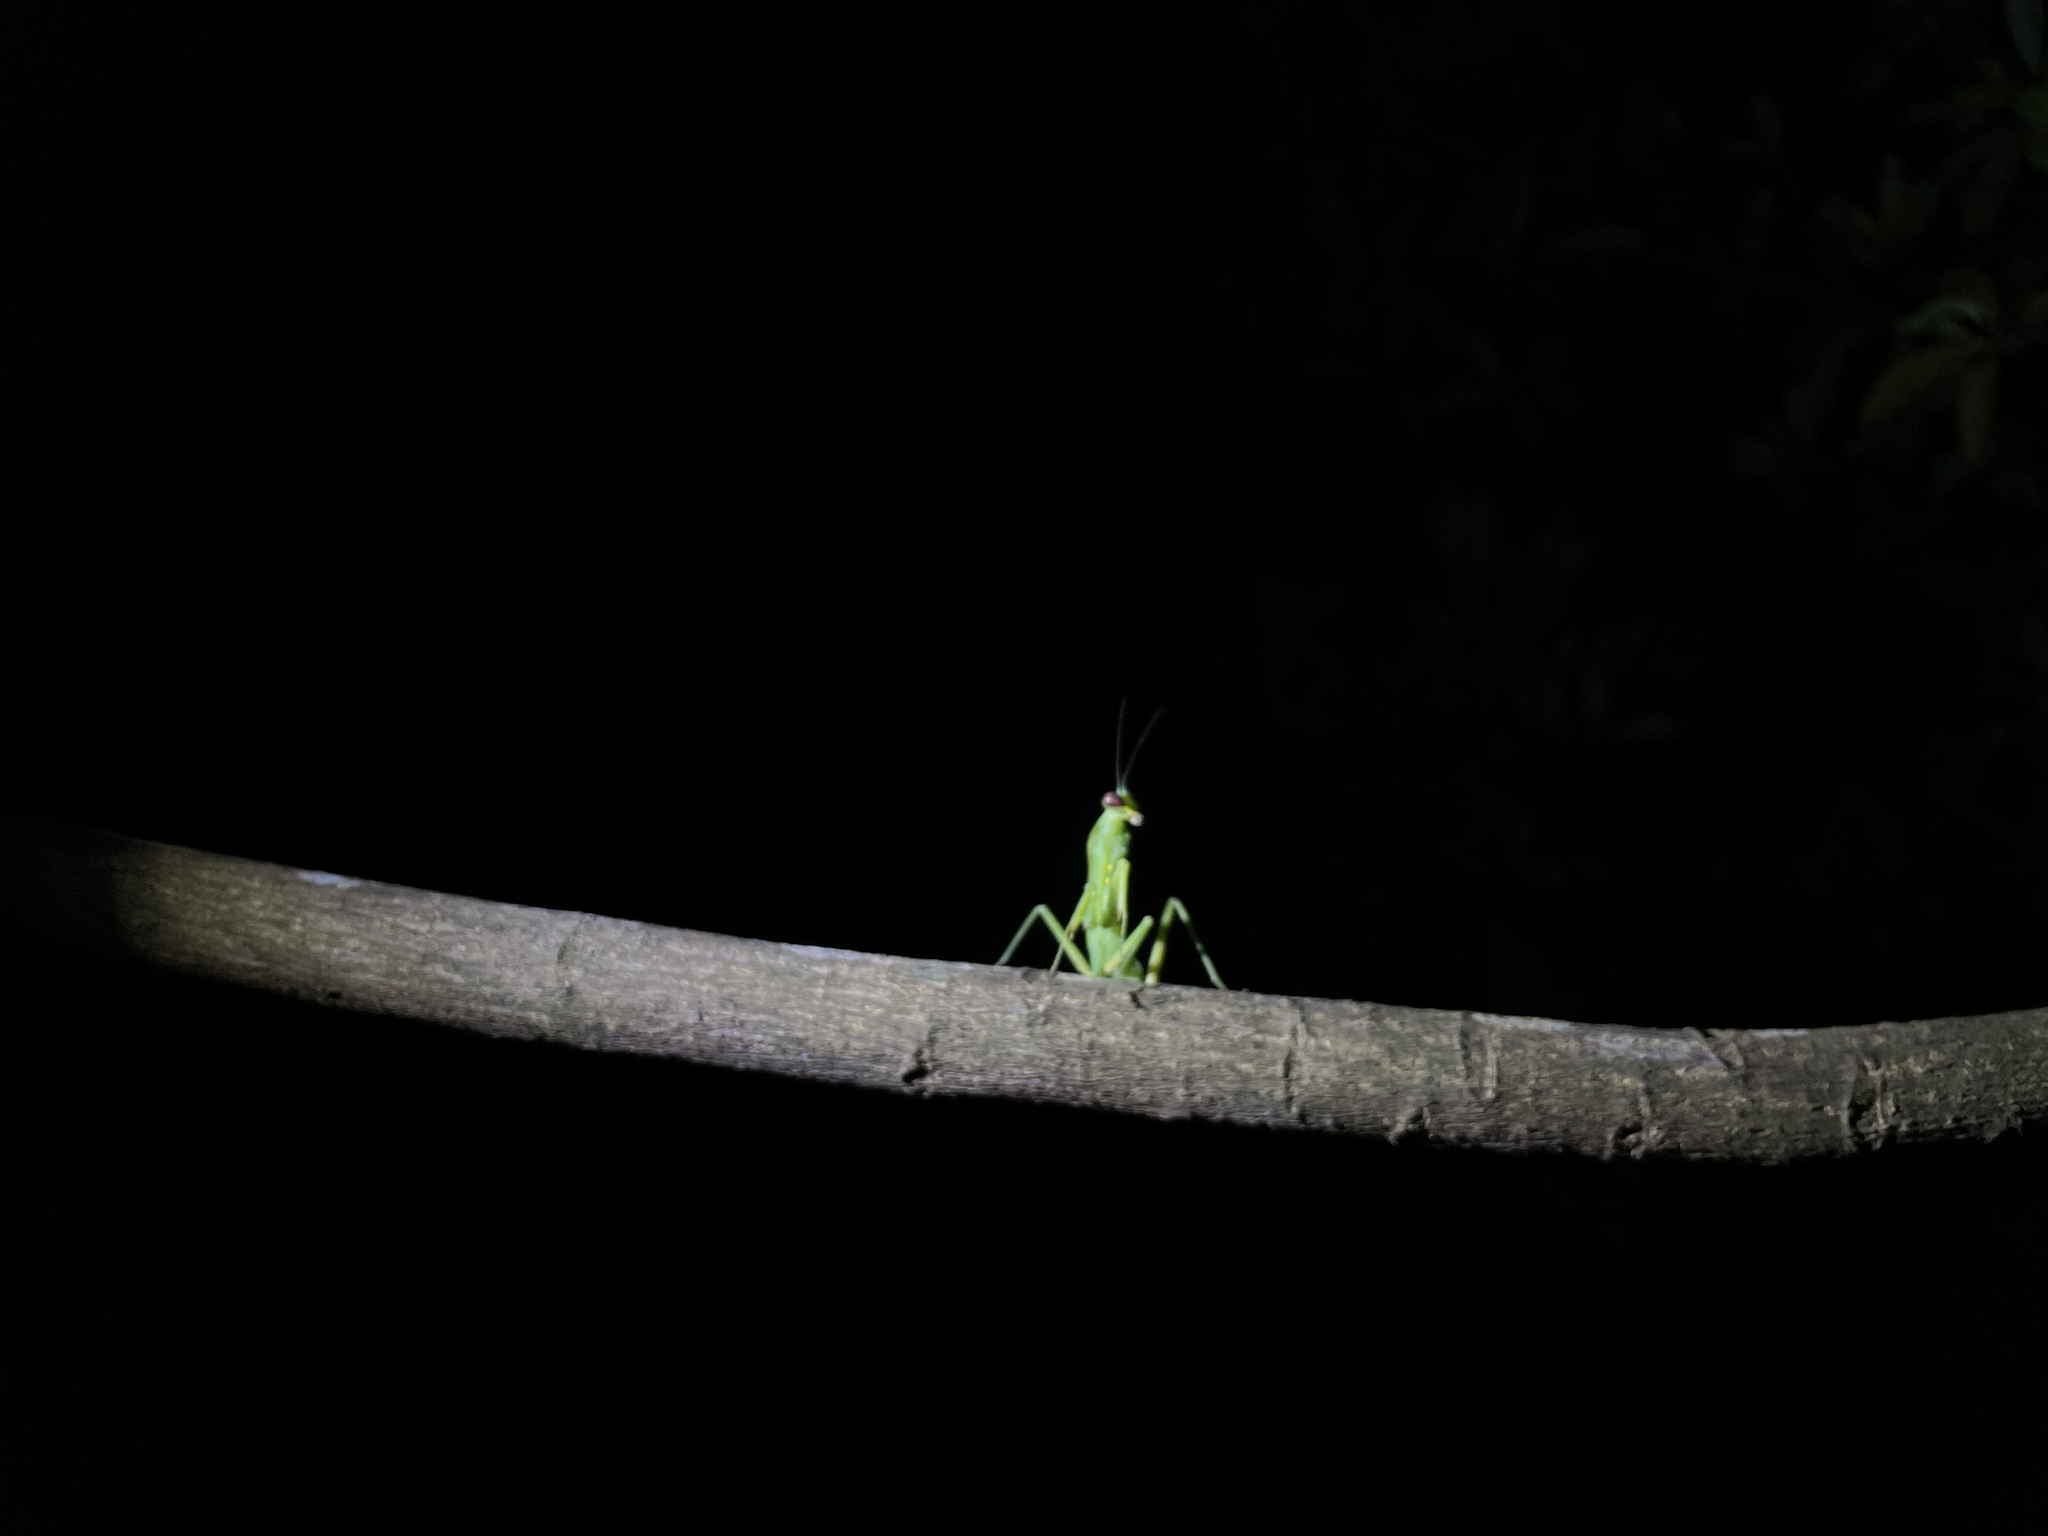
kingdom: Animalia
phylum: Arthropoda
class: Insecta
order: Mantodea
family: Mantidae
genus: Hierodula
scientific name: Hierodula patellifera
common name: Asian mantis
